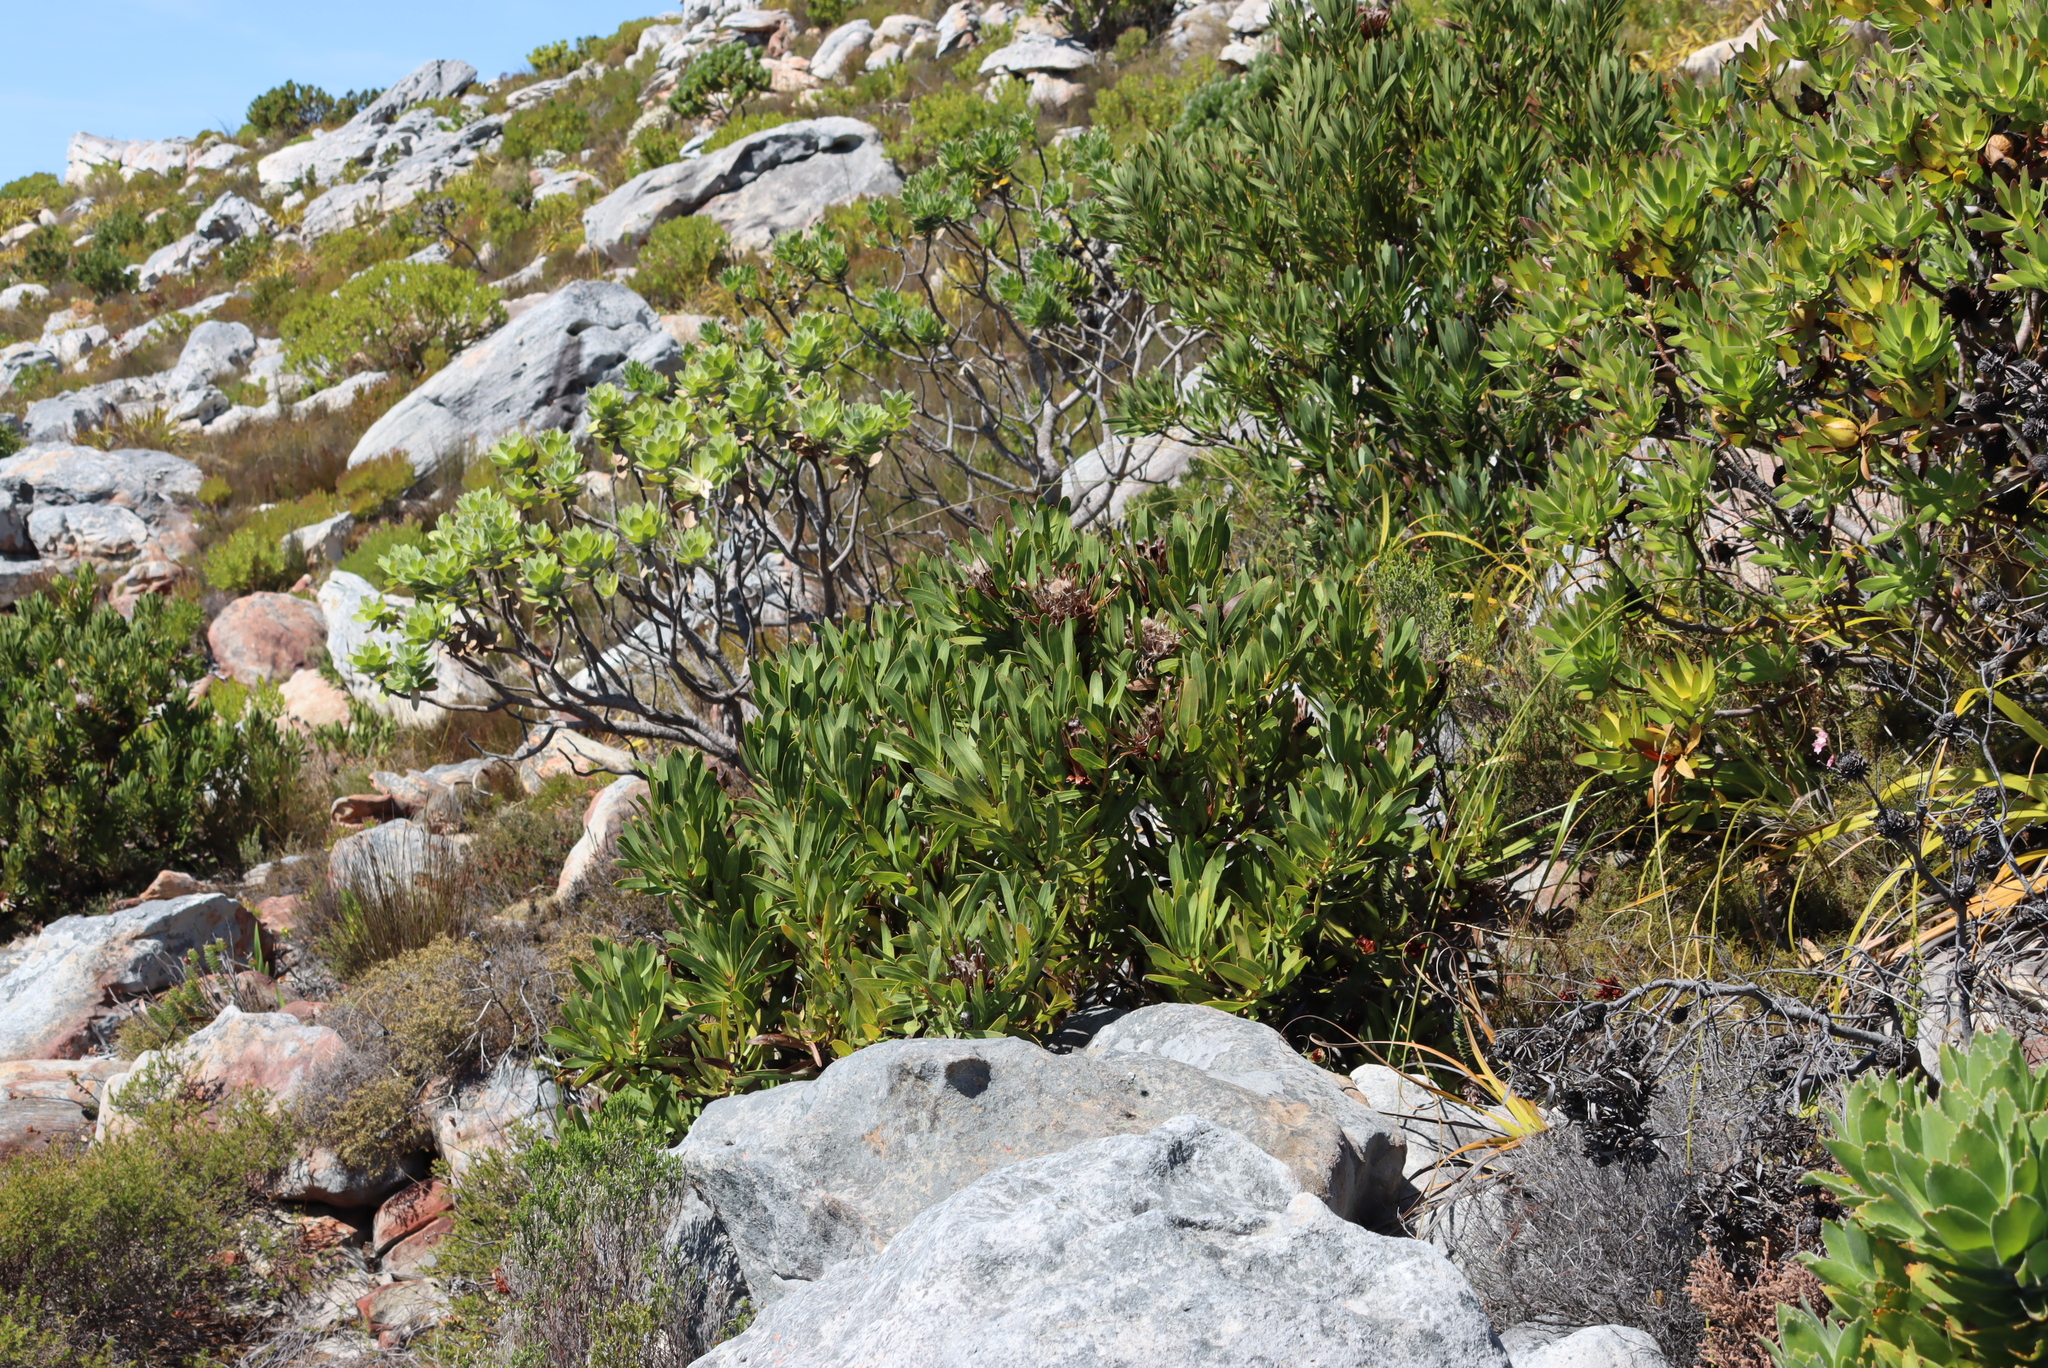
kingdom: Plantae
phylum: Tracheophyta
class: Magnoliopsida
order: Proteales
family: Proteaceae
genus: Protea
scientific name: Protea lepidocarpodendron
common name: Black-bearded protea
